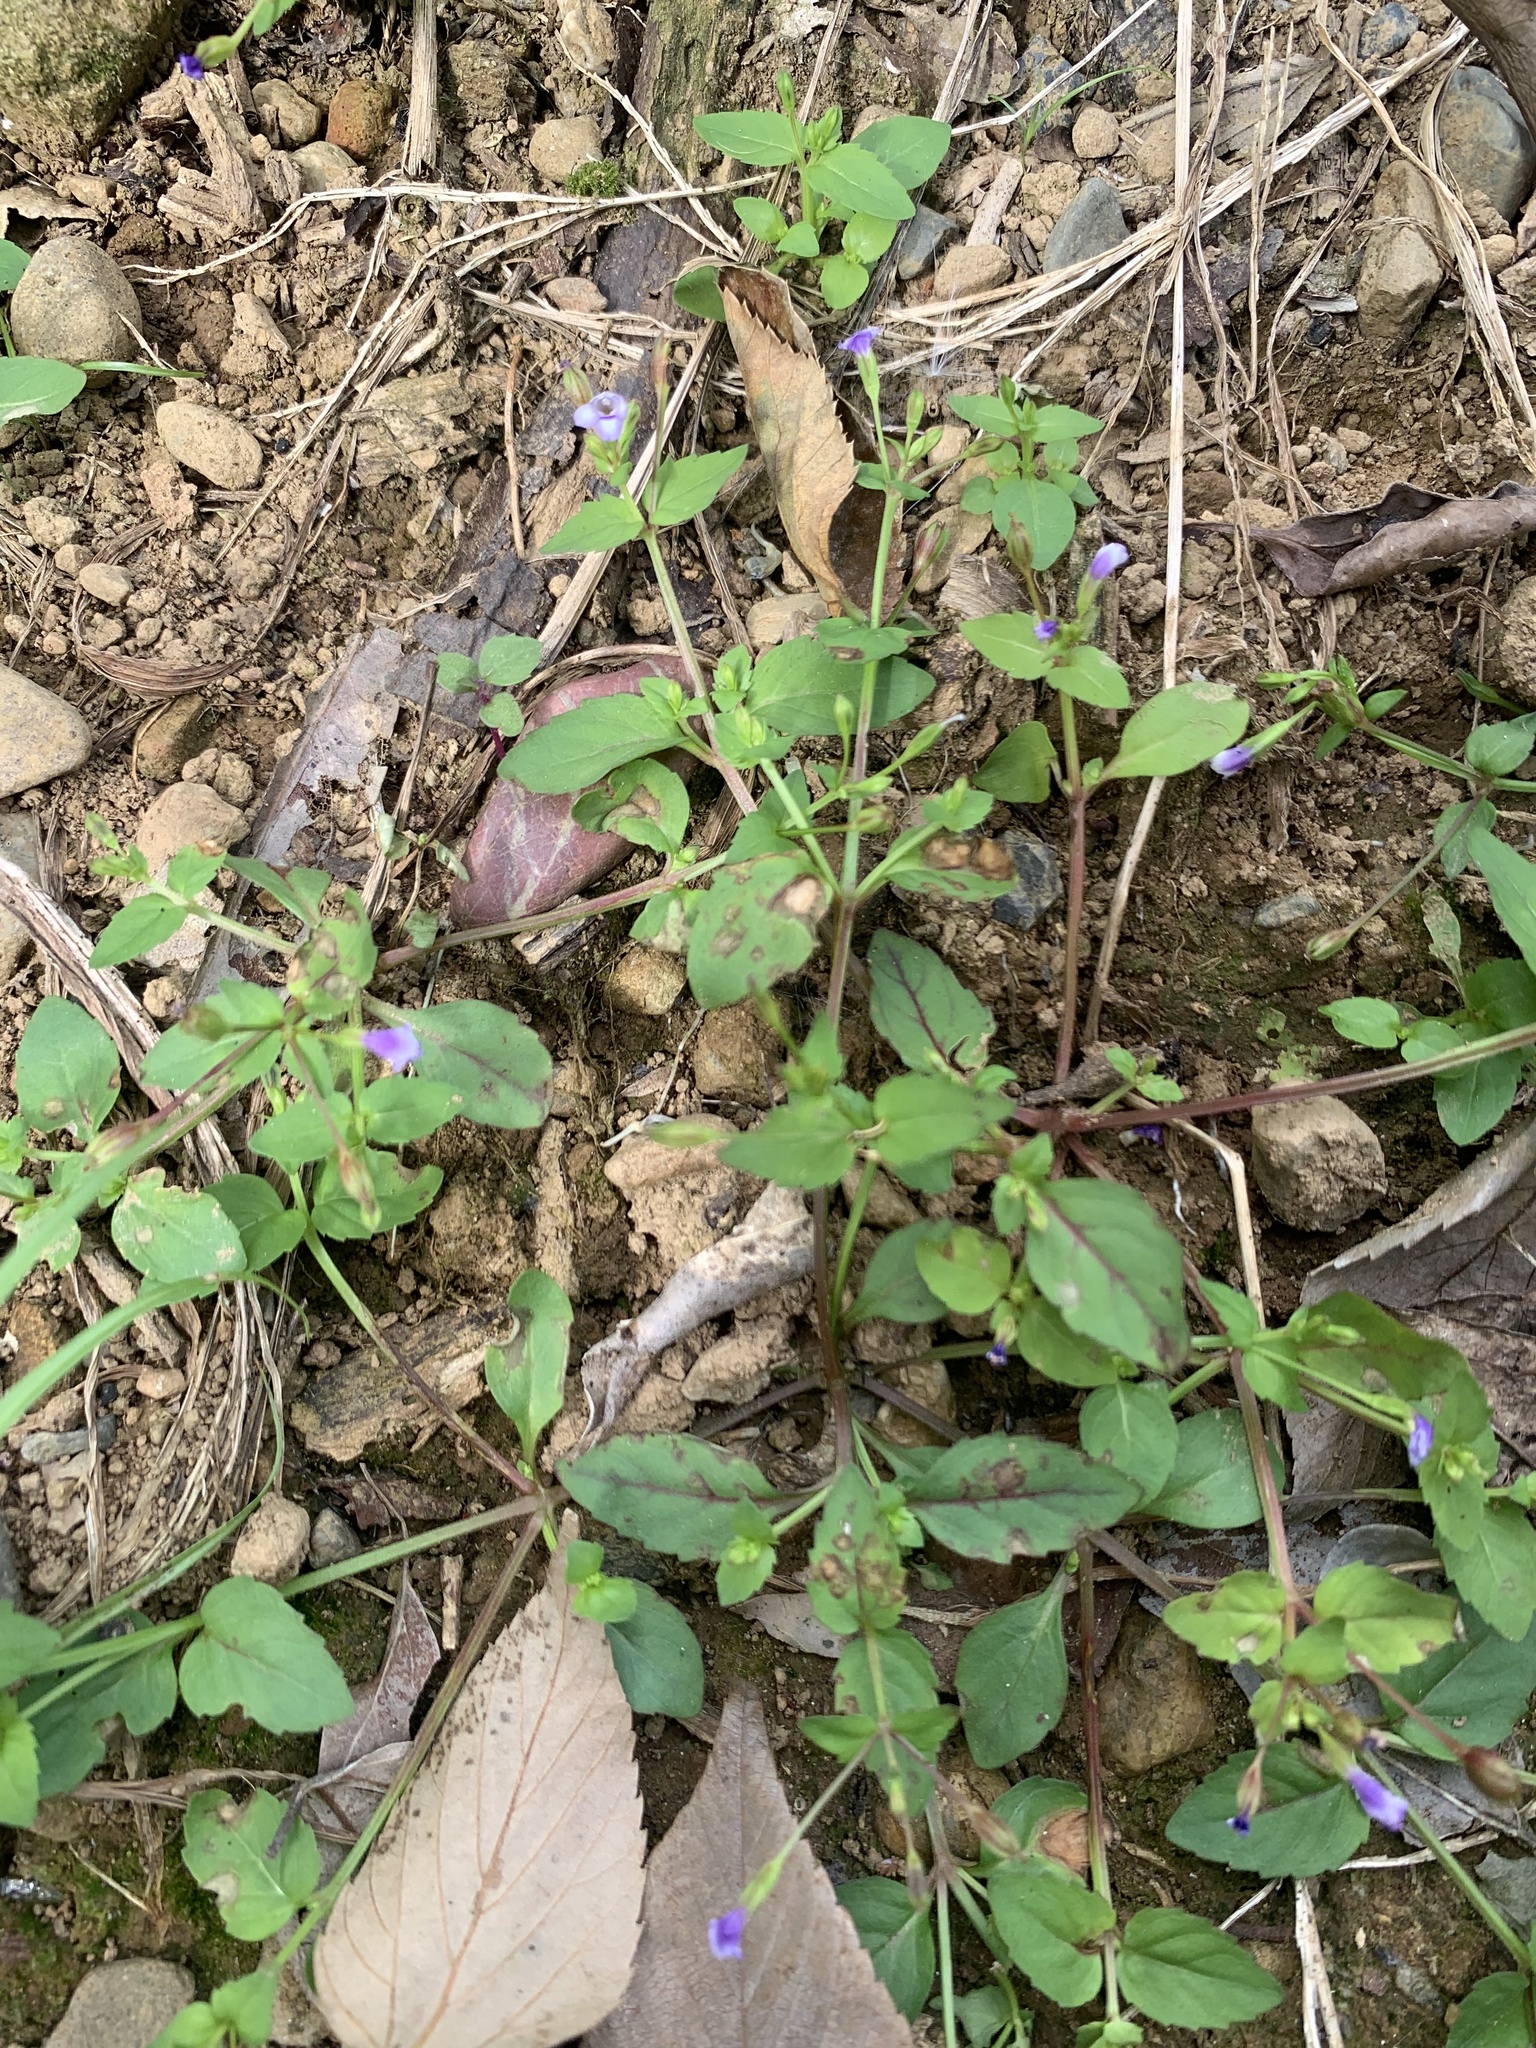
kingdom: Plantae
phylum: Tracheophyta
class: Magnoliopsida
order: Lamiales
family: Linderniaceae
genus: Torenia
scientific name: Torenia crustacea
